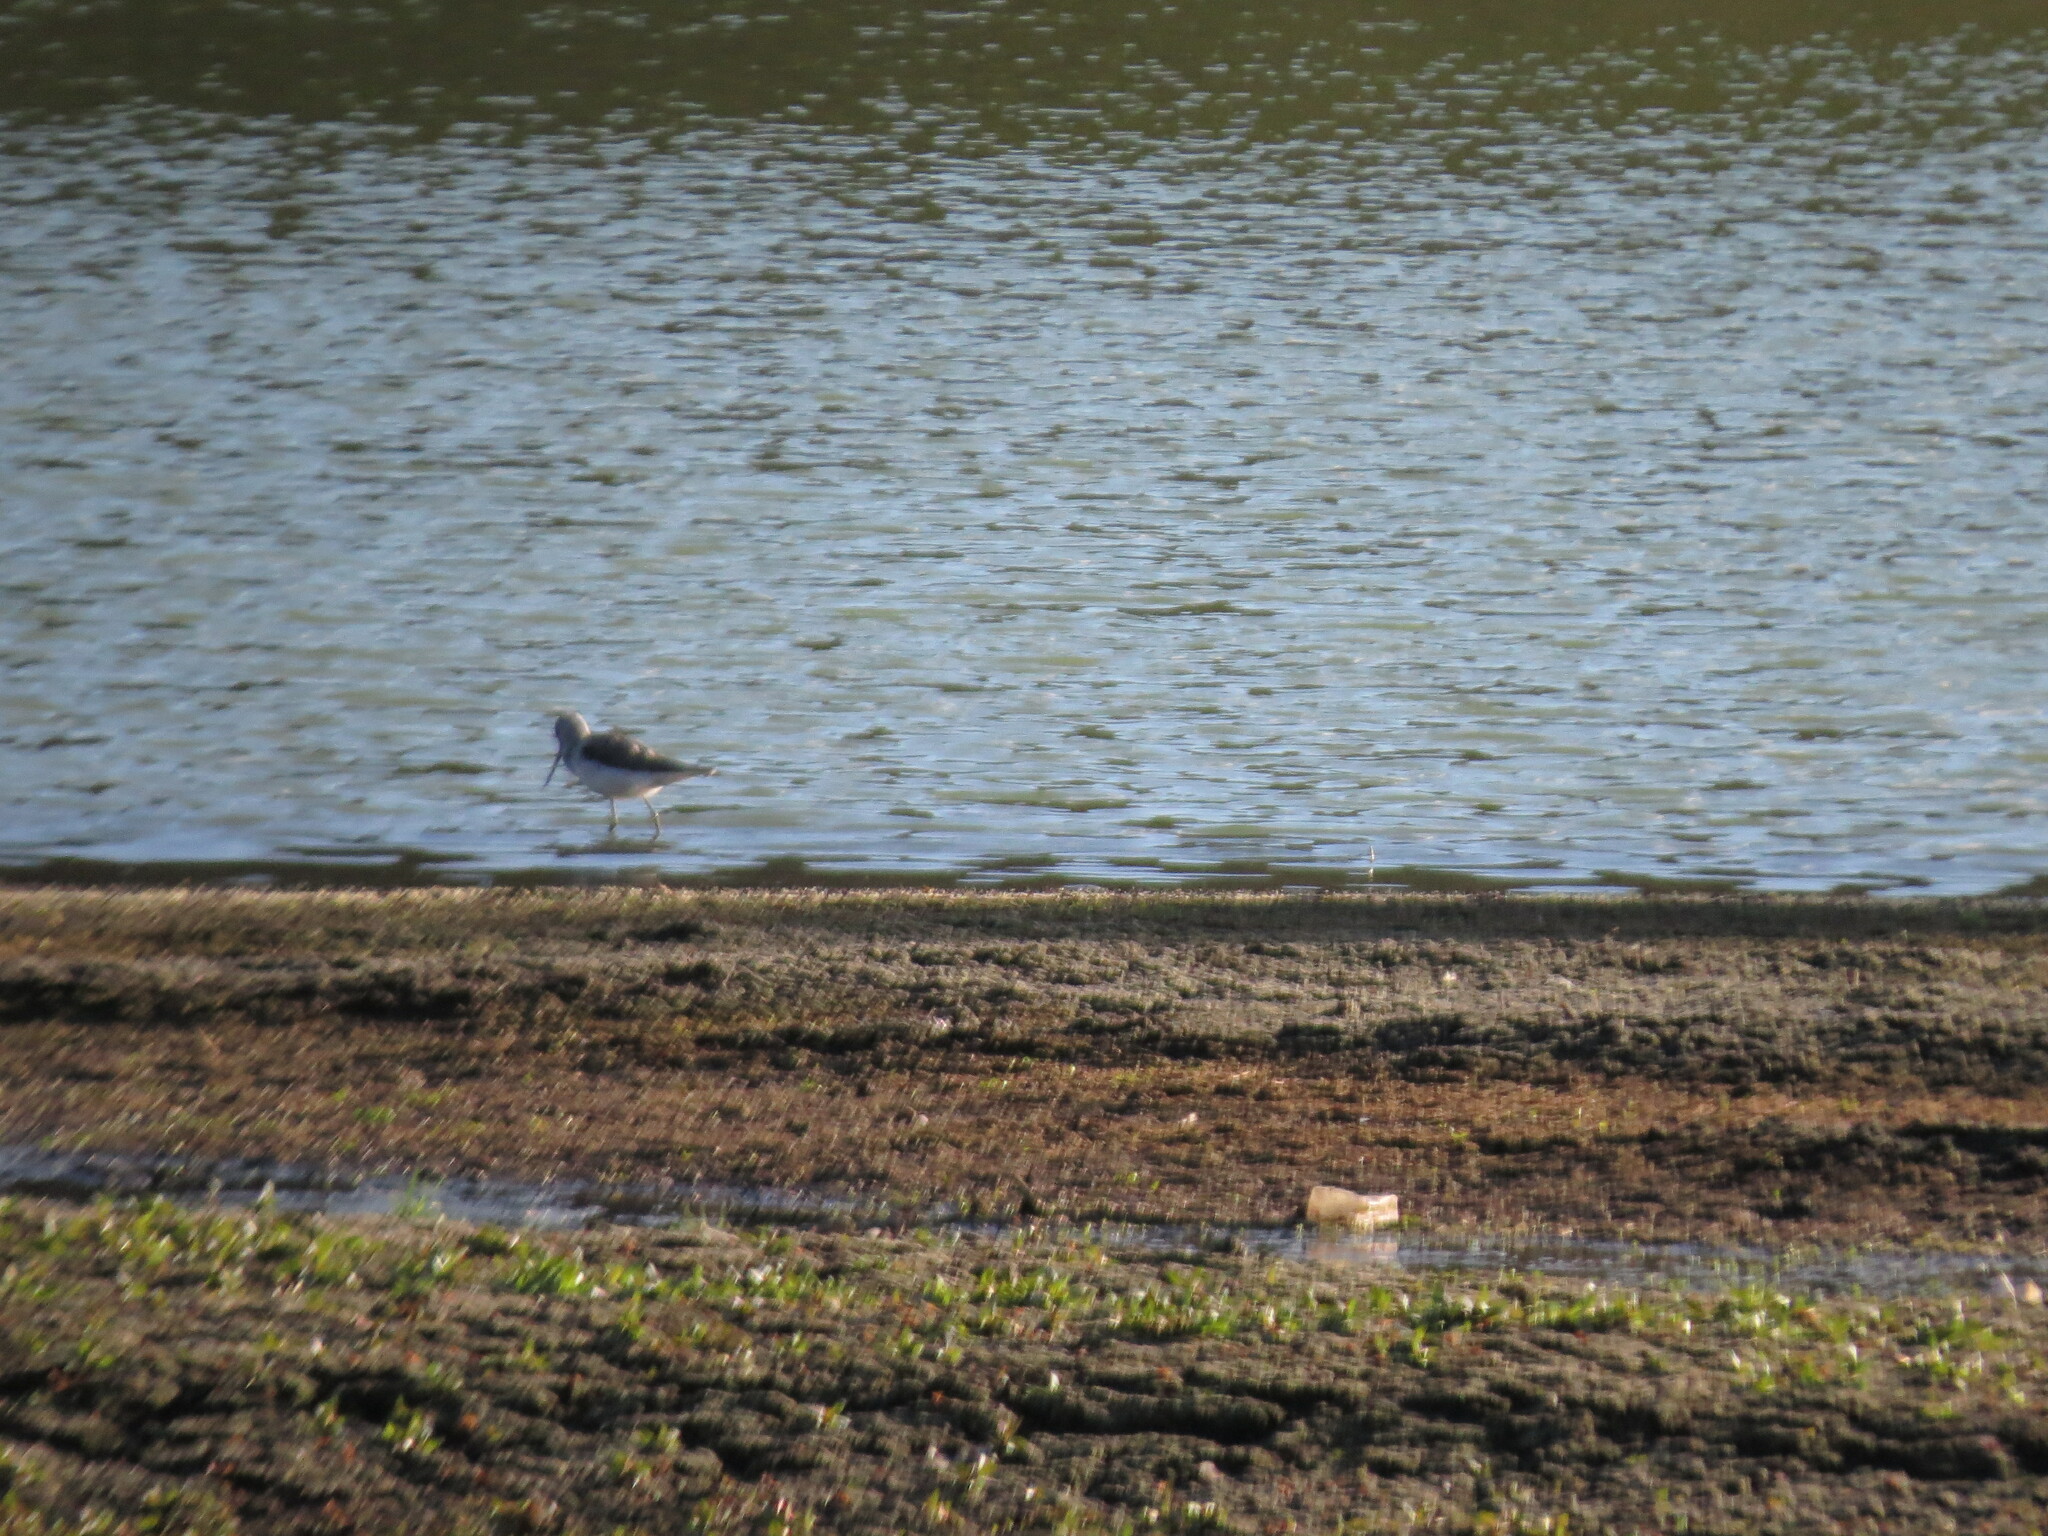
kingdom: Animalia
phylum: Chordata
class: Aves
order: Charadriiformes
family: Scolopacidae
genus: Tringa
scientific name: Tringa nebularia
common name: Common greenshank
